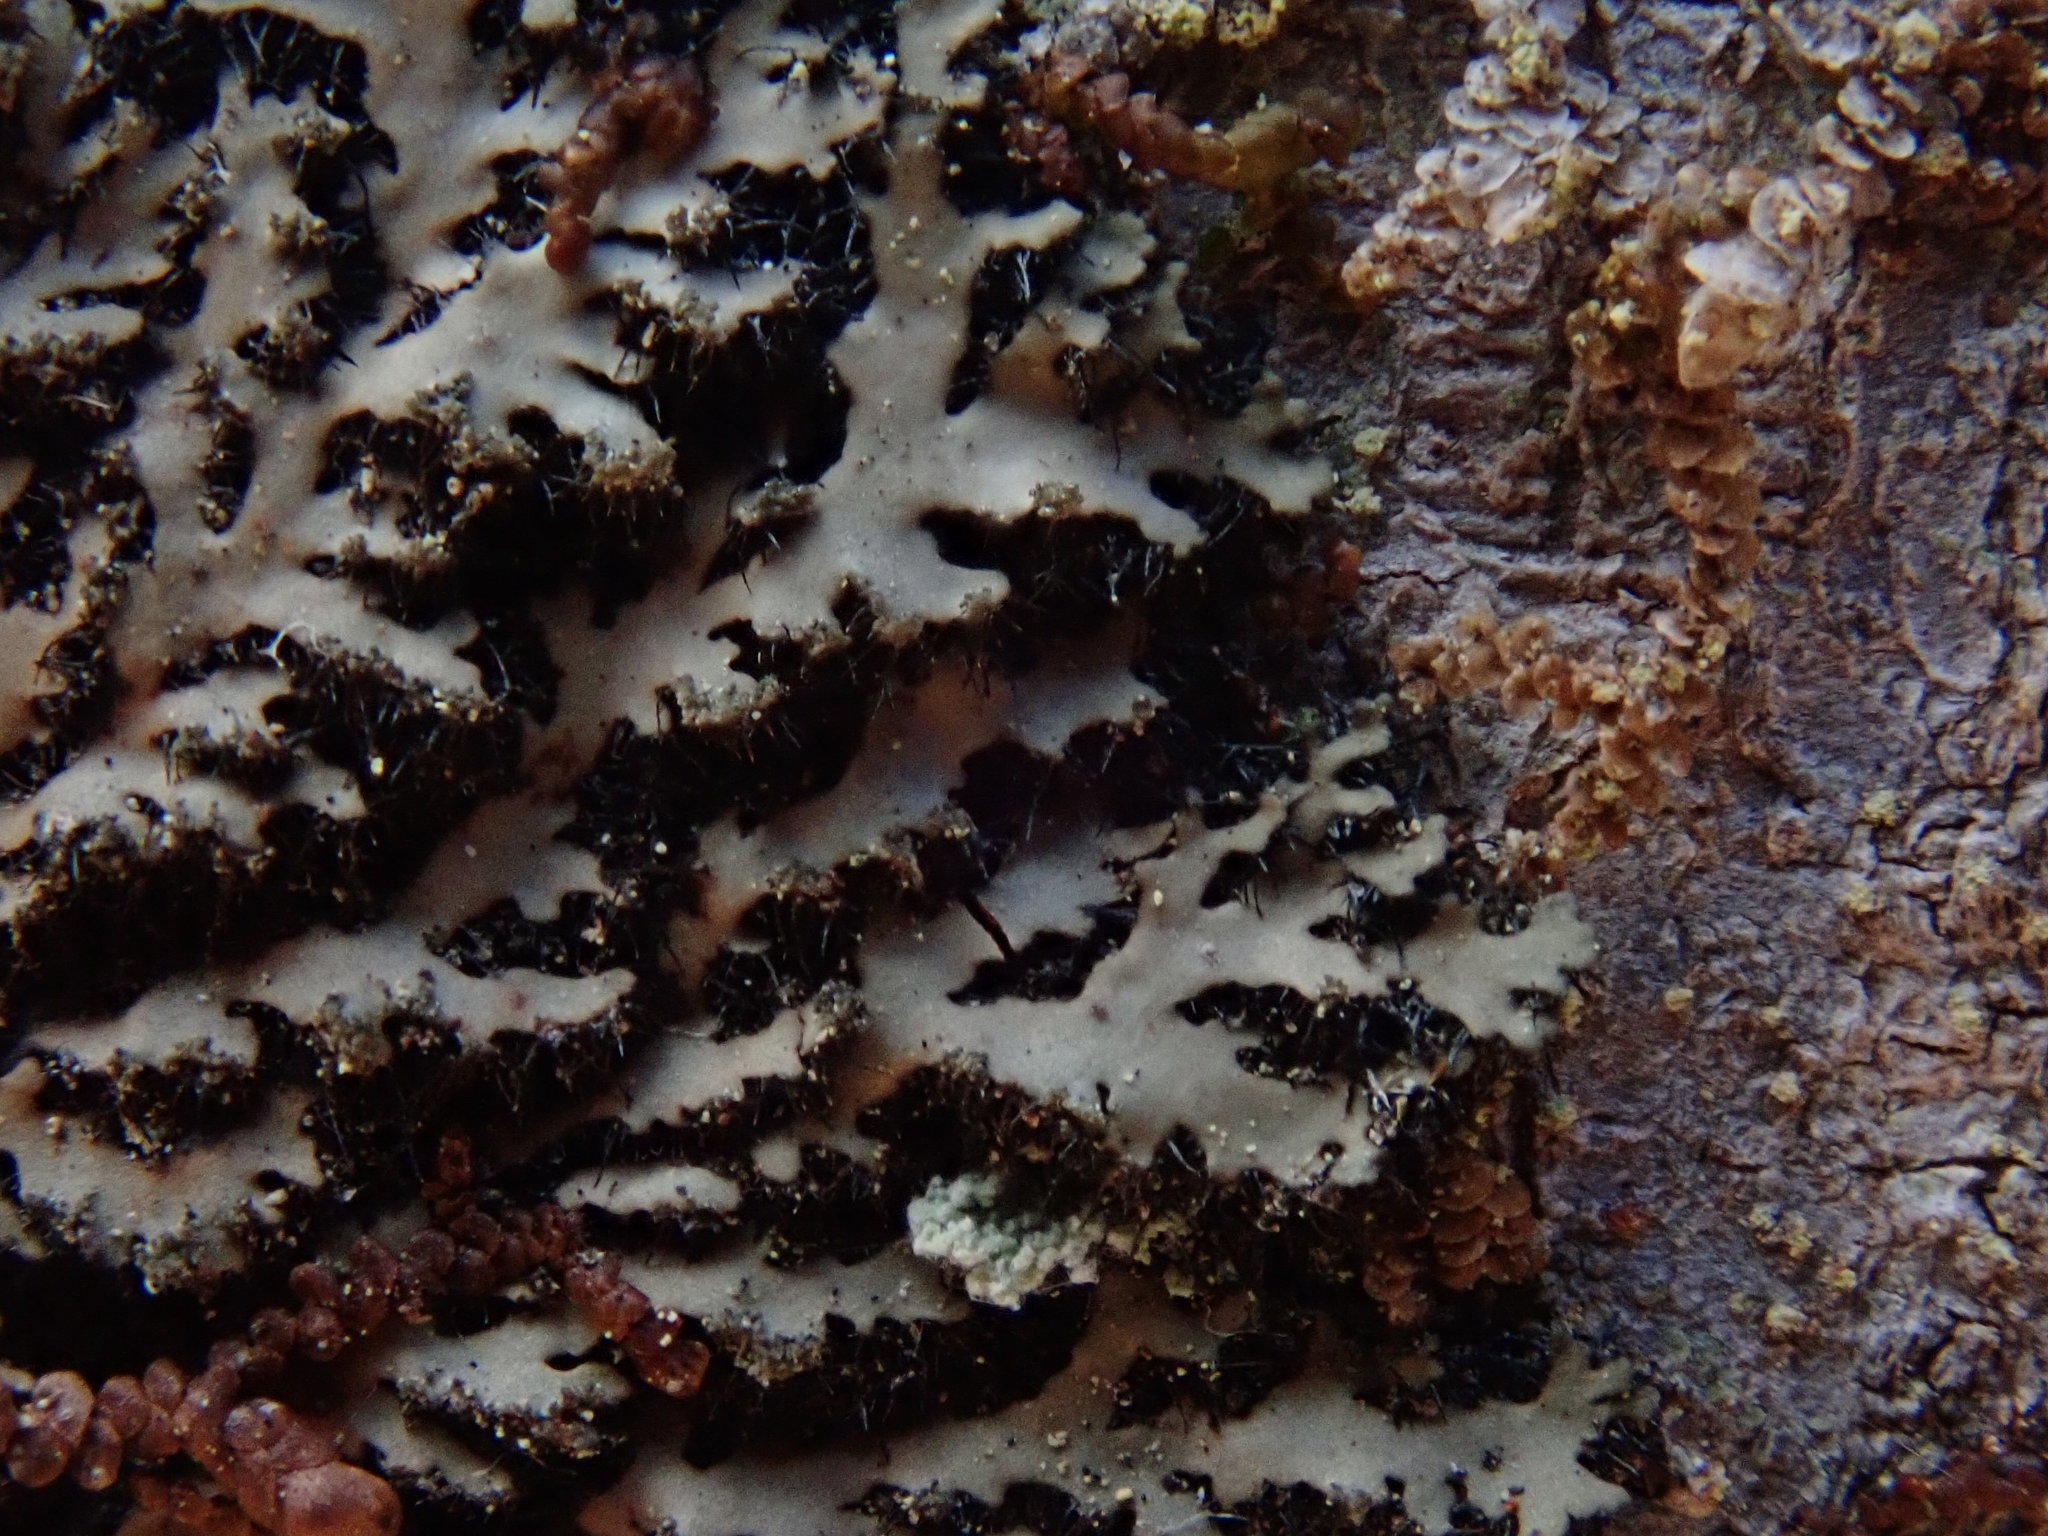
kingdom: Fungi
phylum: Ascomycota
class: Lecanoromycetes
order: Caliciales
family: Physciaceae
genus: Phaeophyscia
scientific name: Phaeophyscia rubropulchra
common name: Orange-cored shadow lichen
